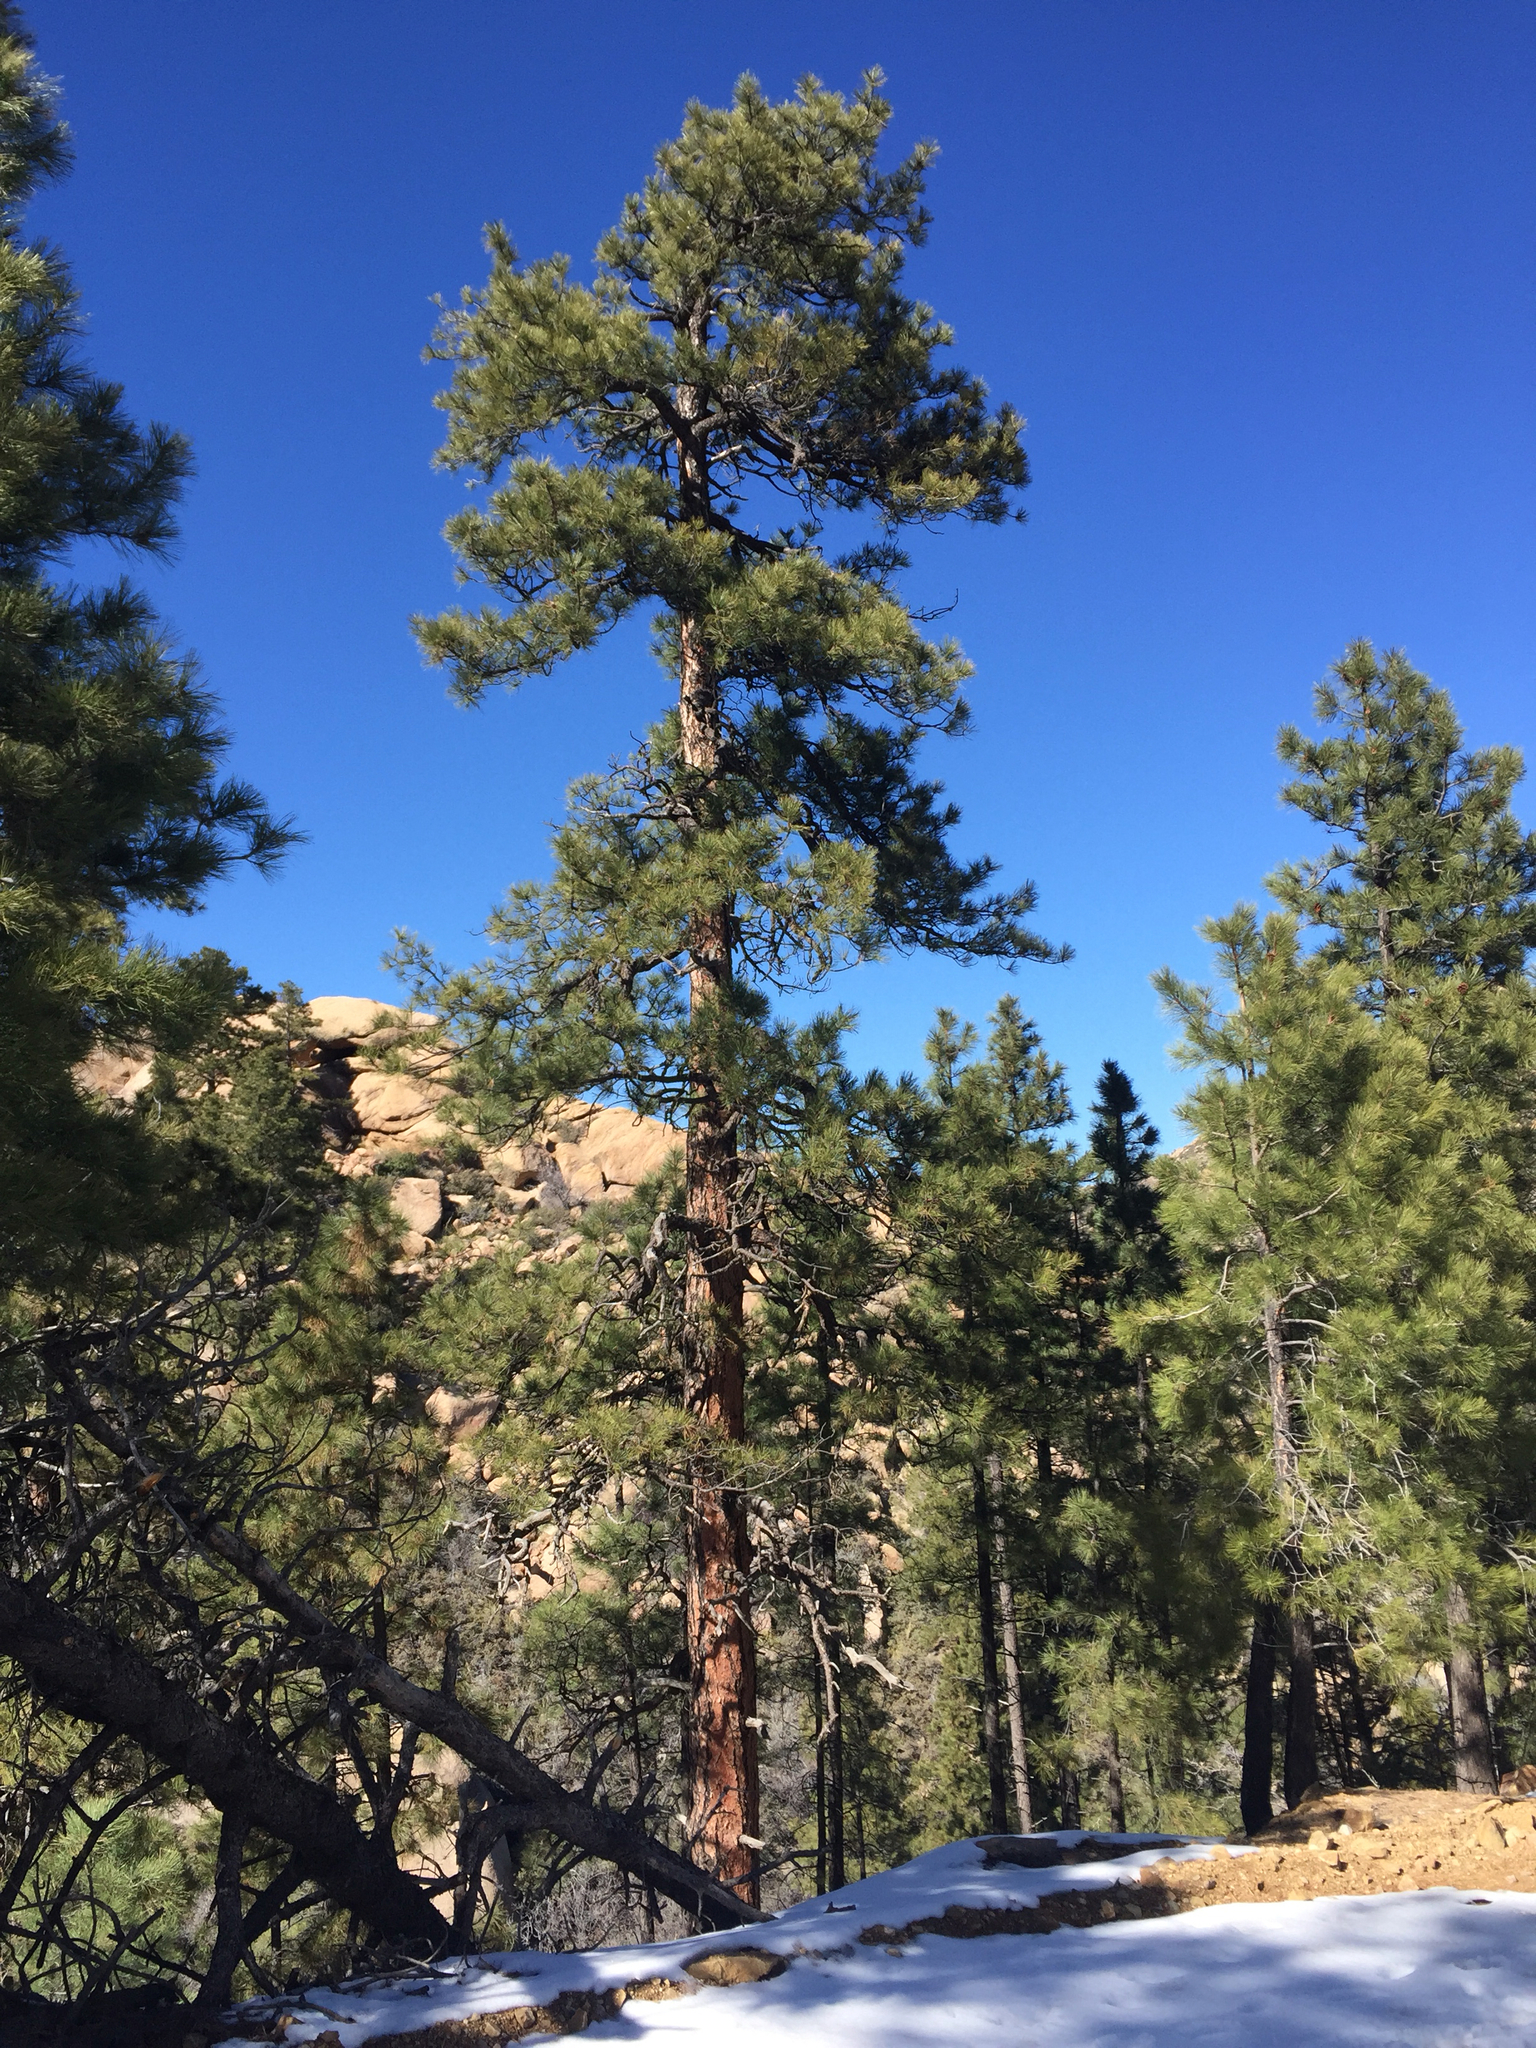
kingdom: Plantae
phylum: Tracheophyta
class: Pinopsida
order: Pinales
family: Pinaceae
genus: Pinus
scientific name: Pinus ponderosa
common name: Western yellow-pine
